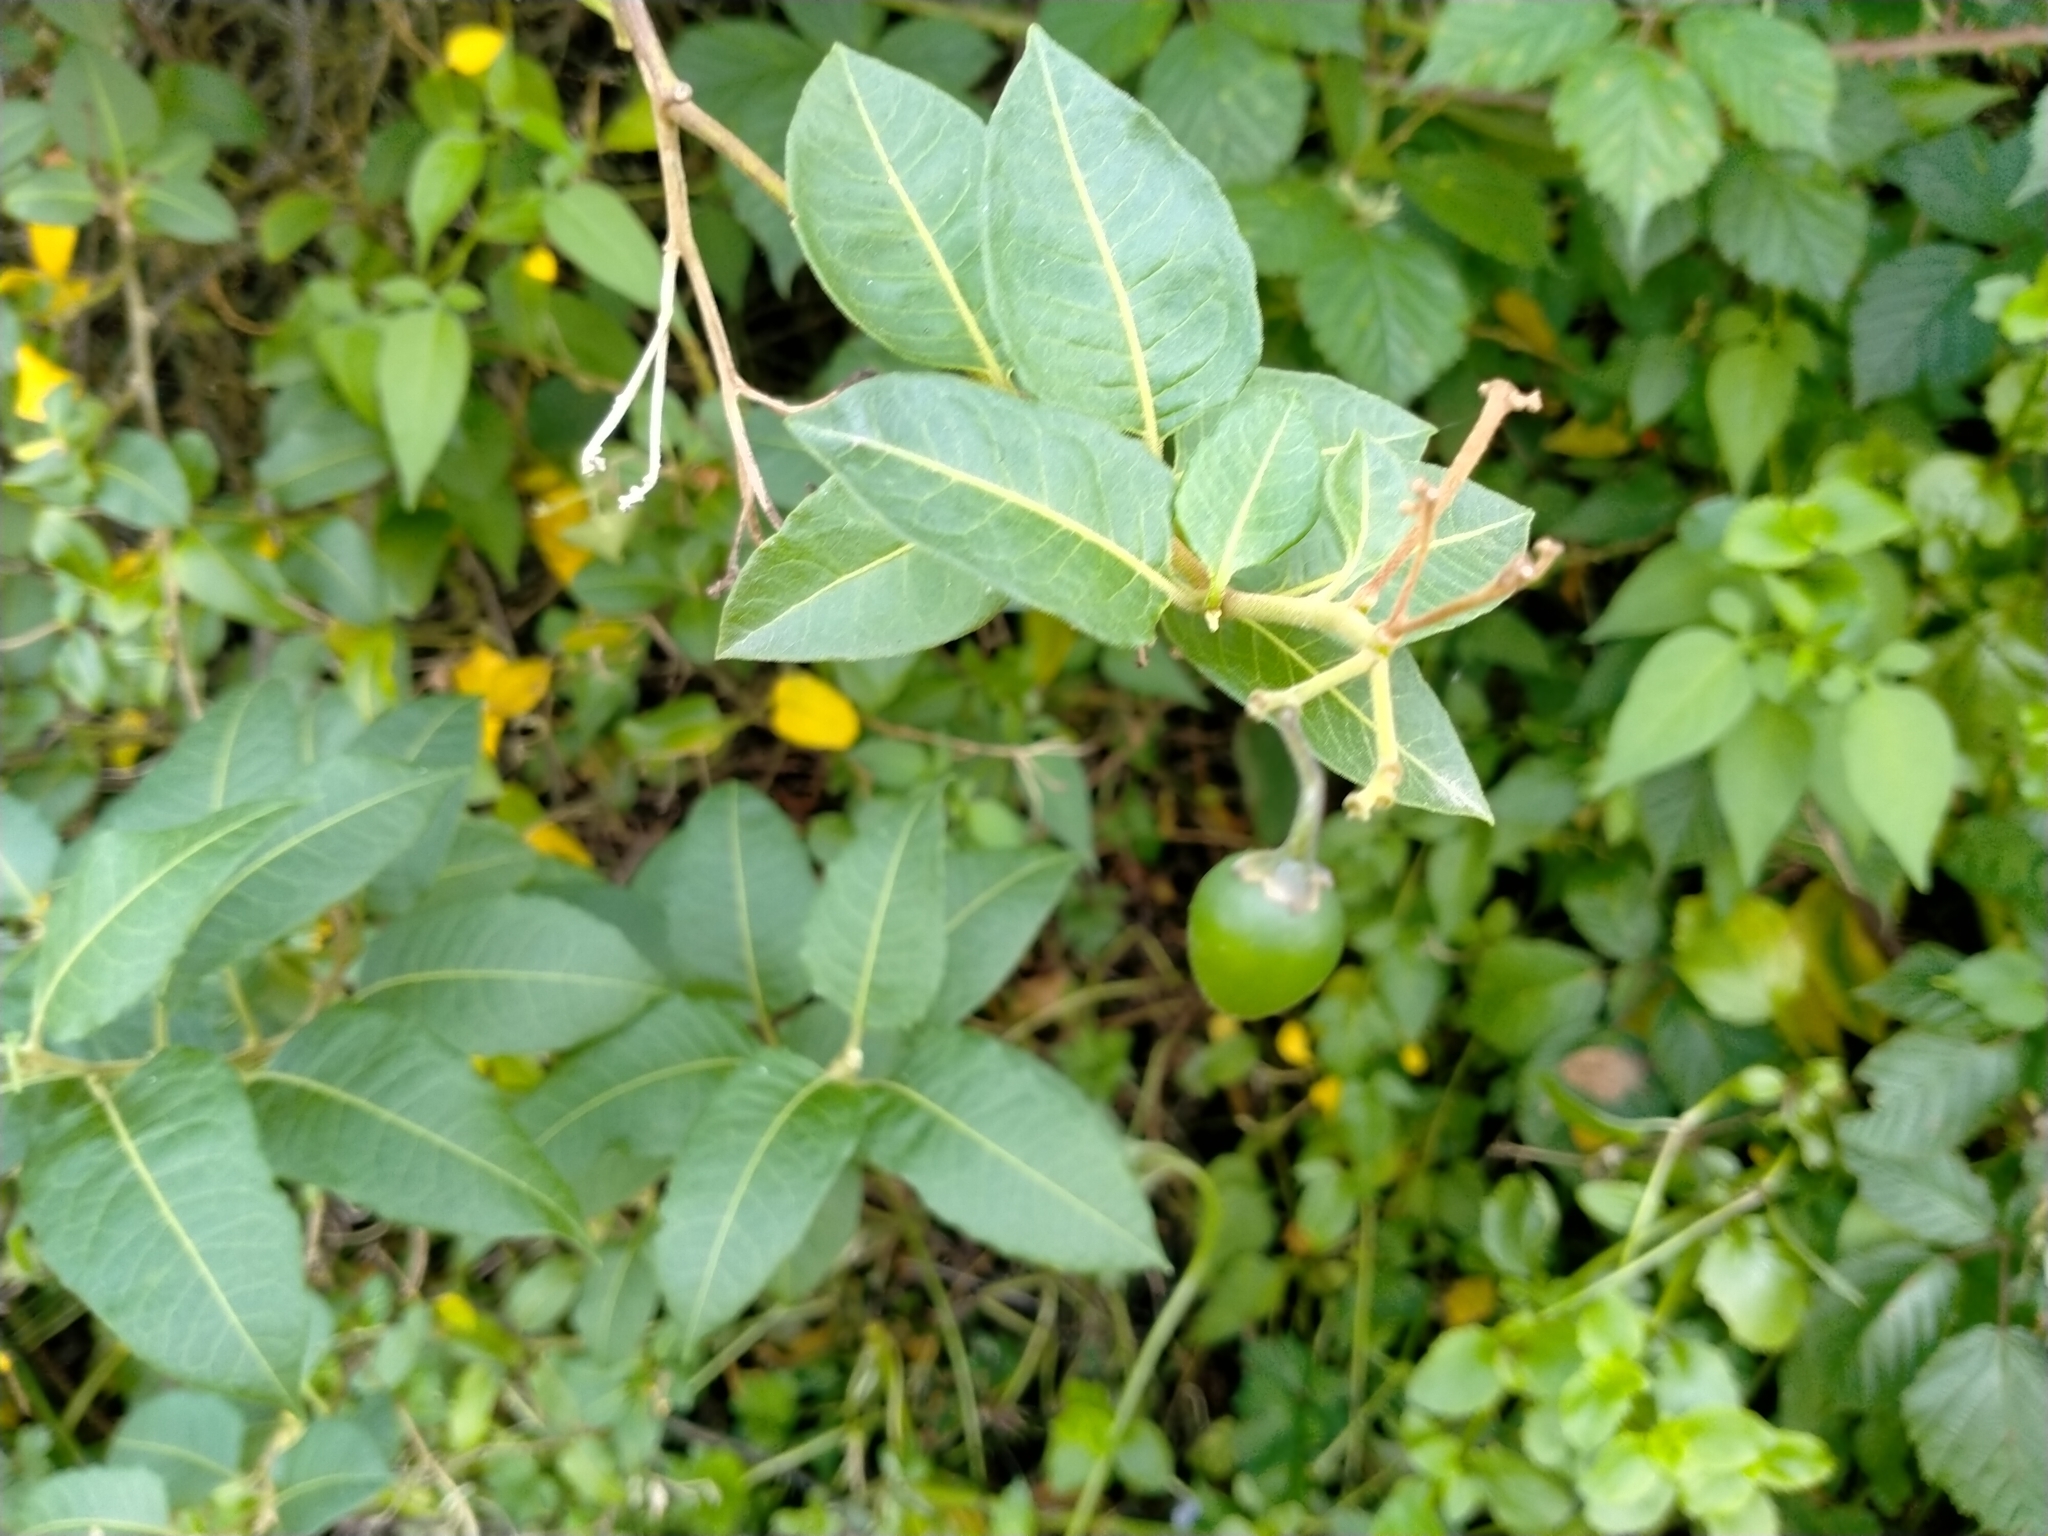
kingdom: Plantae
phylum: Tracheophyta
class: Magnoliopsida
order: Solanales
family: Solanaceae
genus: Solanum
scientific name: Solanum crispum
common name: Chilean nightshade
